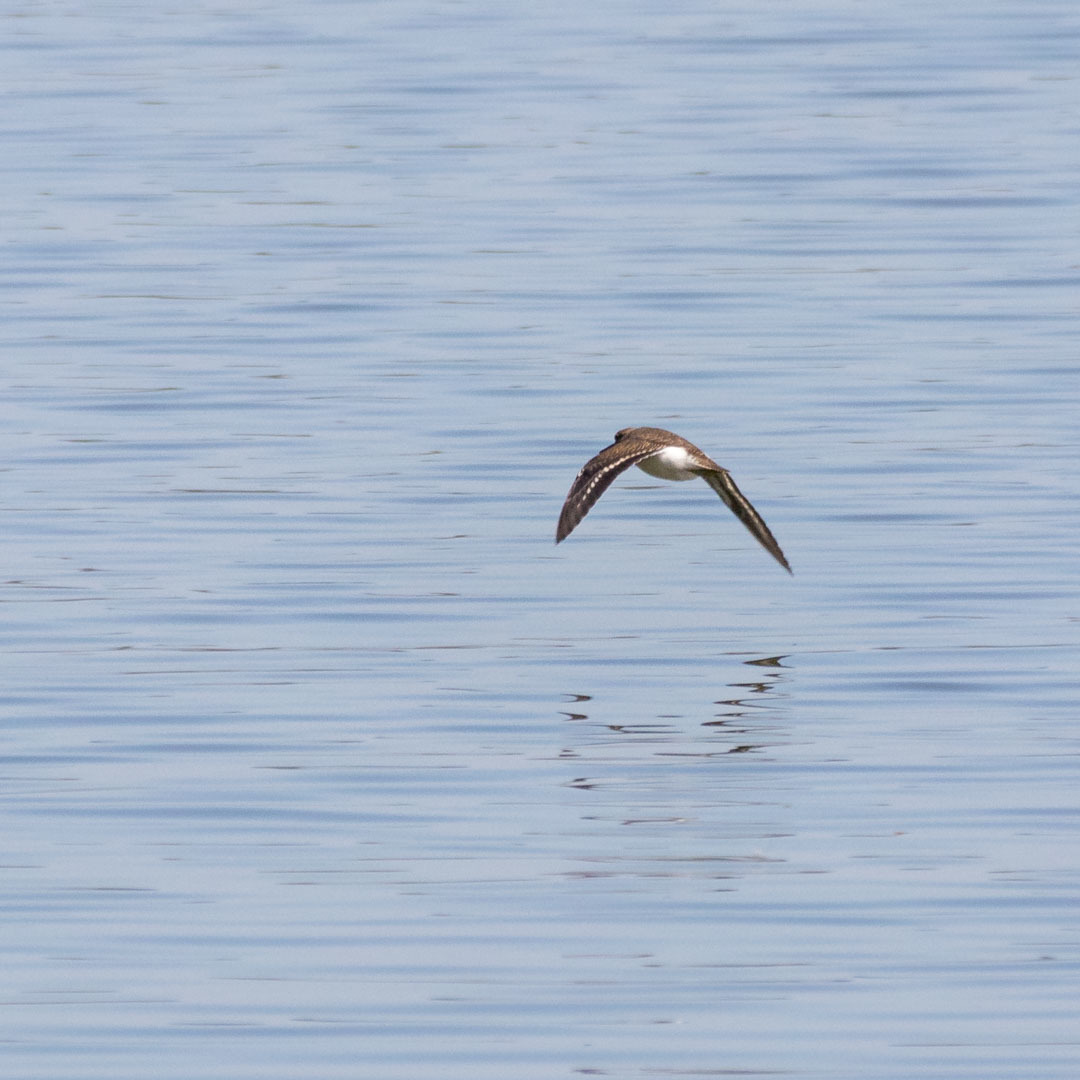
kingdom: Animalia
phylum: Chordata
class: Aves
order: Charadriiformes
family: Scolopacidae
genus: Actitis
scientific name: Actitis hypoleucos
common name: Common sandpiper
